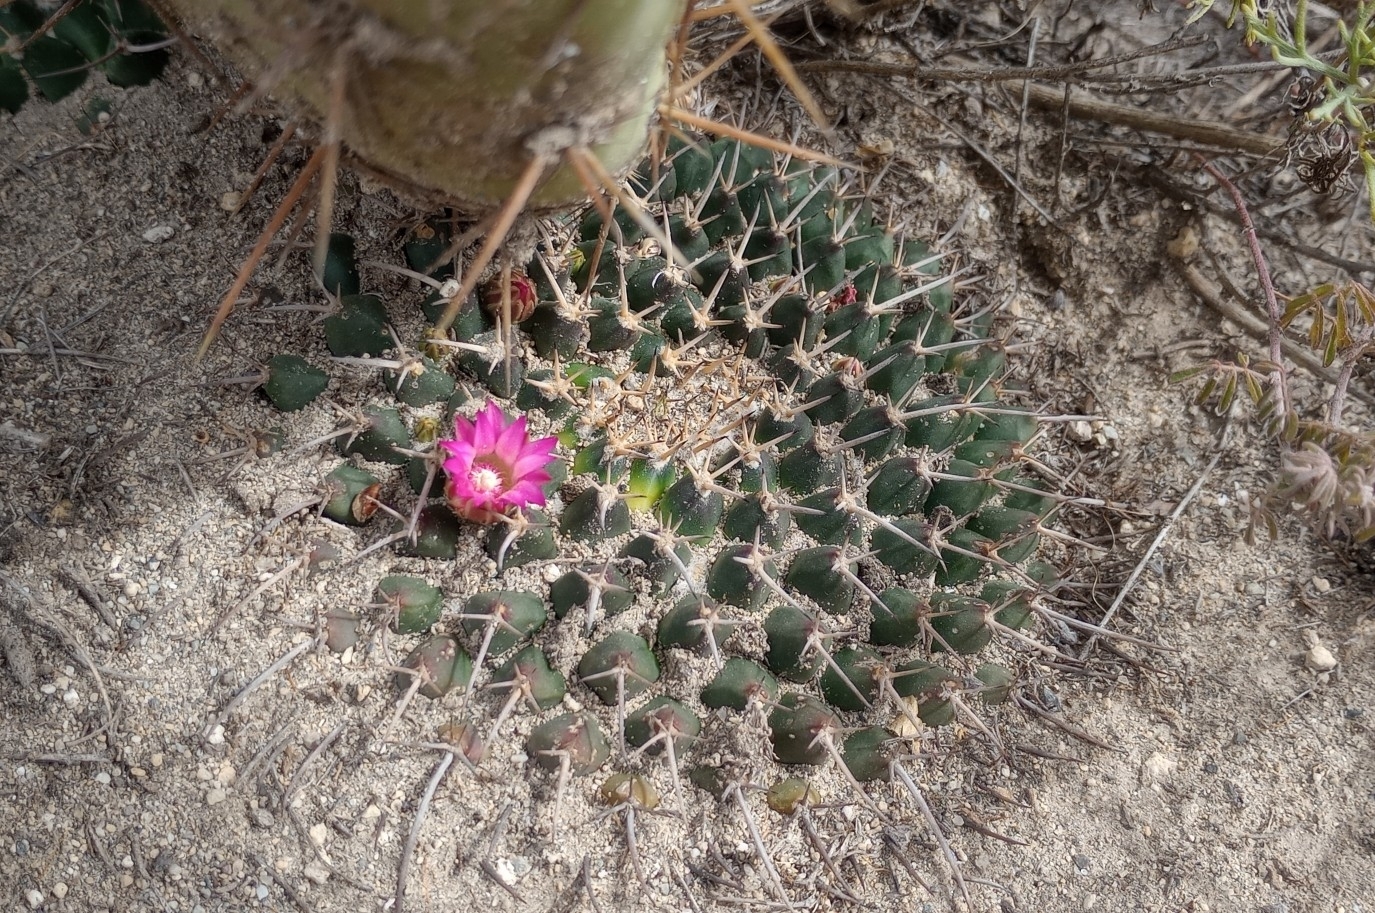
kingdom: Plantae
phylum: Tracheophyta
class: Magnoliopsida
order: Caryophyllales
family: Cactaceae
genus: Mammillaria
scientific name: Mammillaria magnimamma
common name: Mexican pincushion
